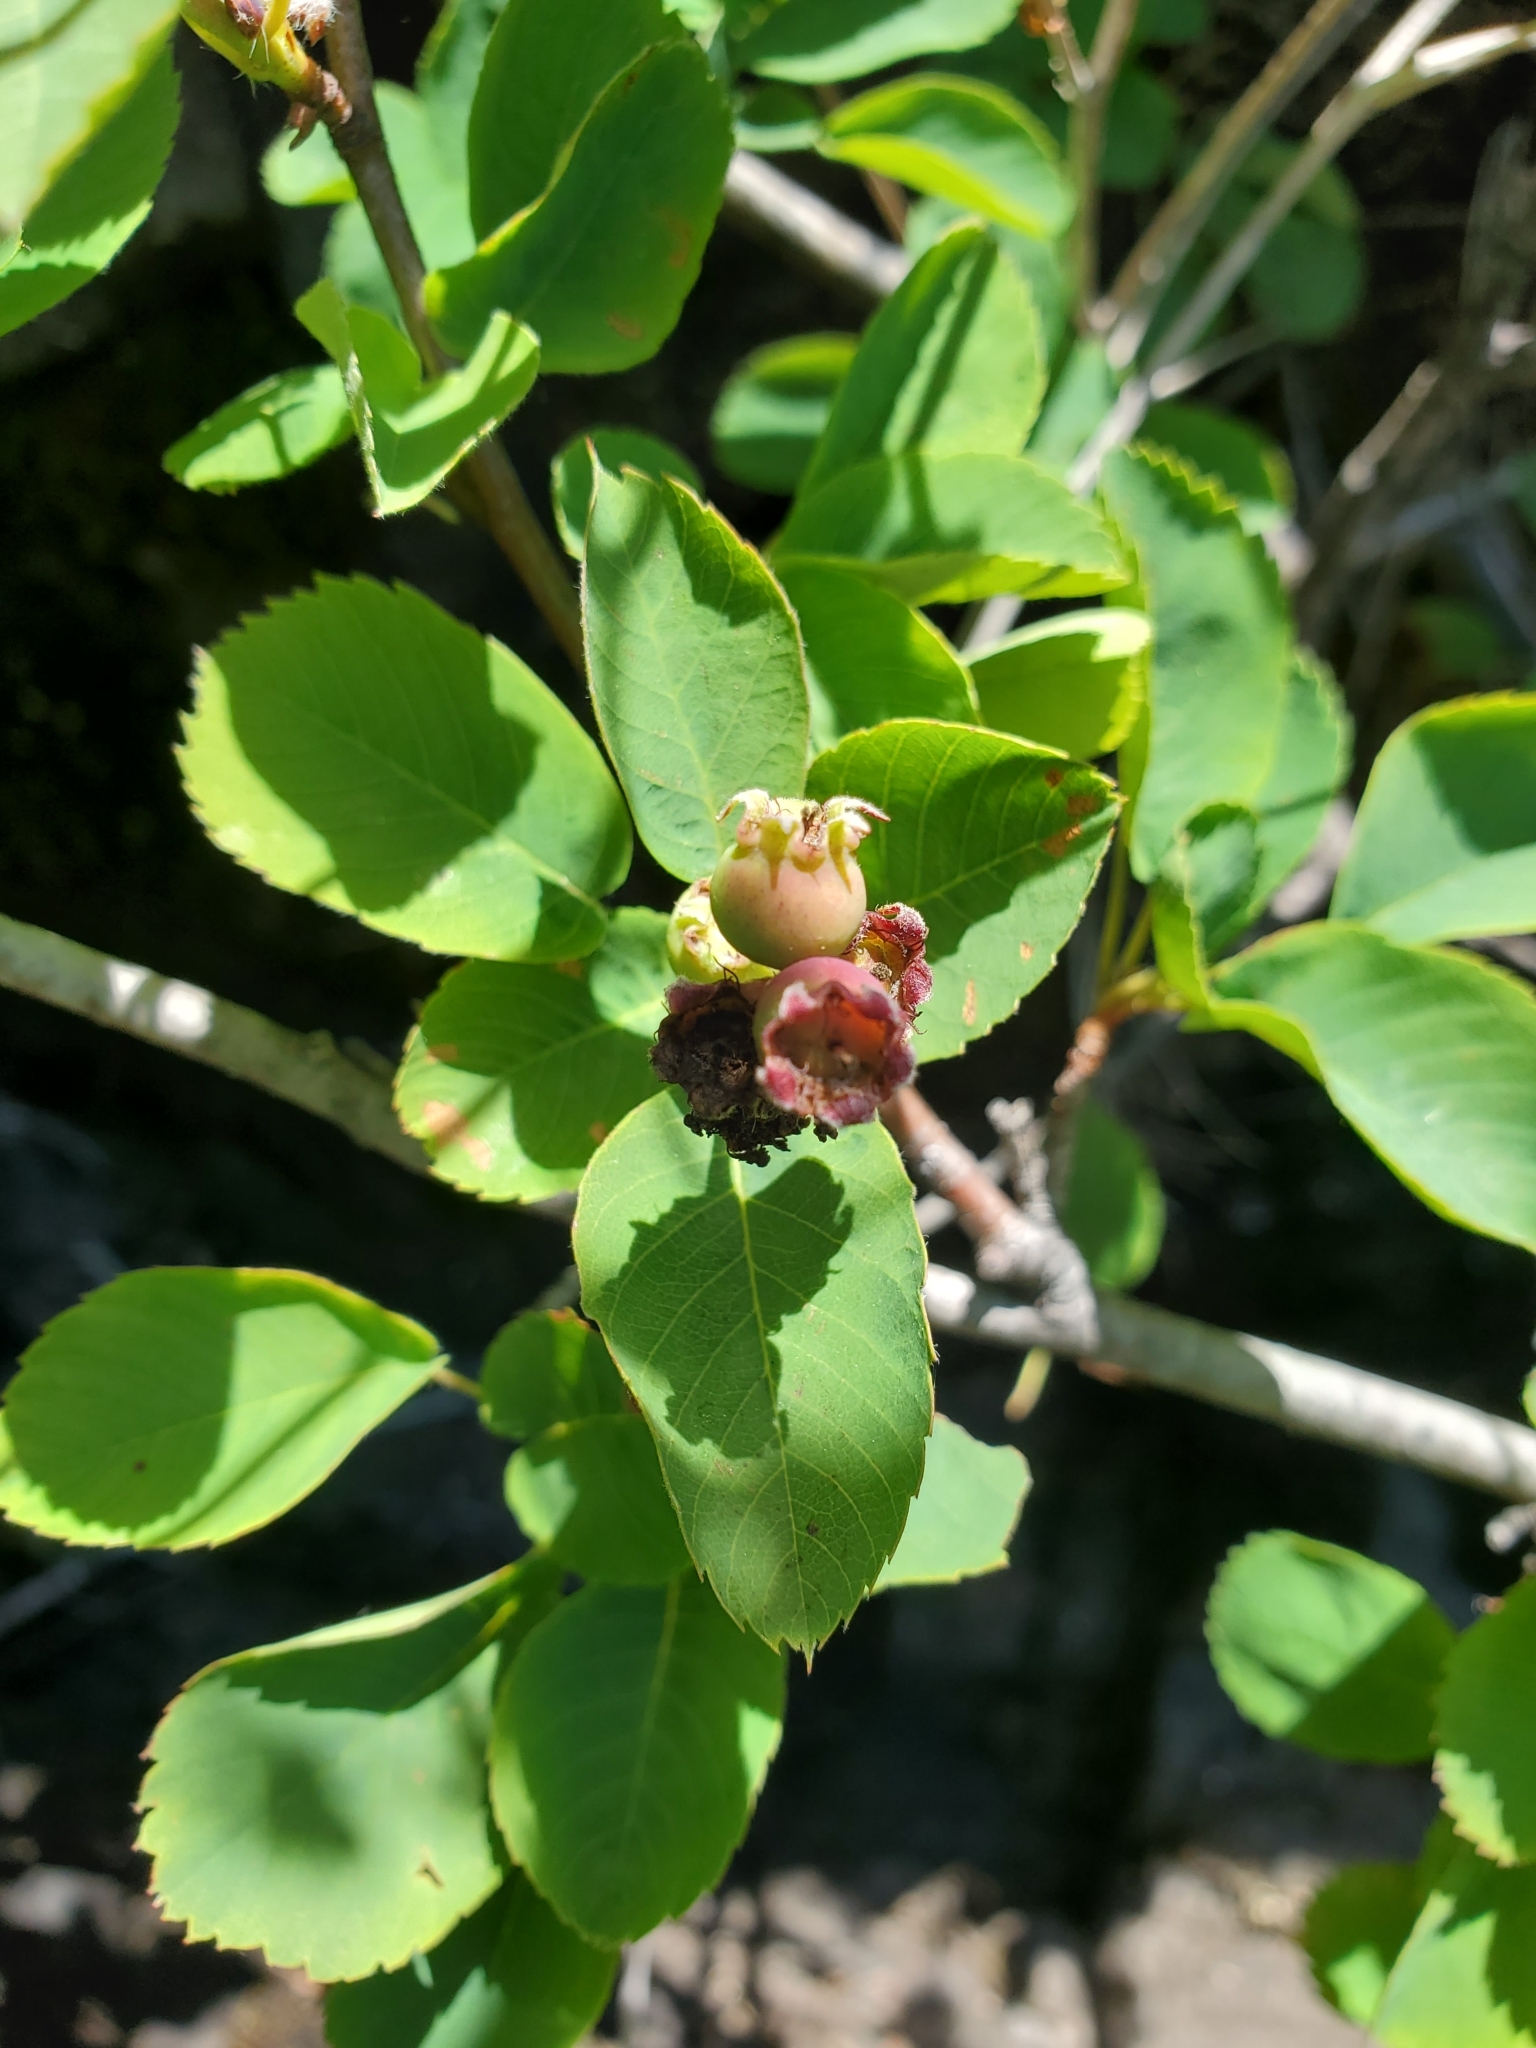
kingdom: Plantae
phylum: Tracheophyta
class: Magnoliopsida
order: Rosales
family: Rosaceae
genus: Amelanchier
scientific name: Amelanchier alnifolia
